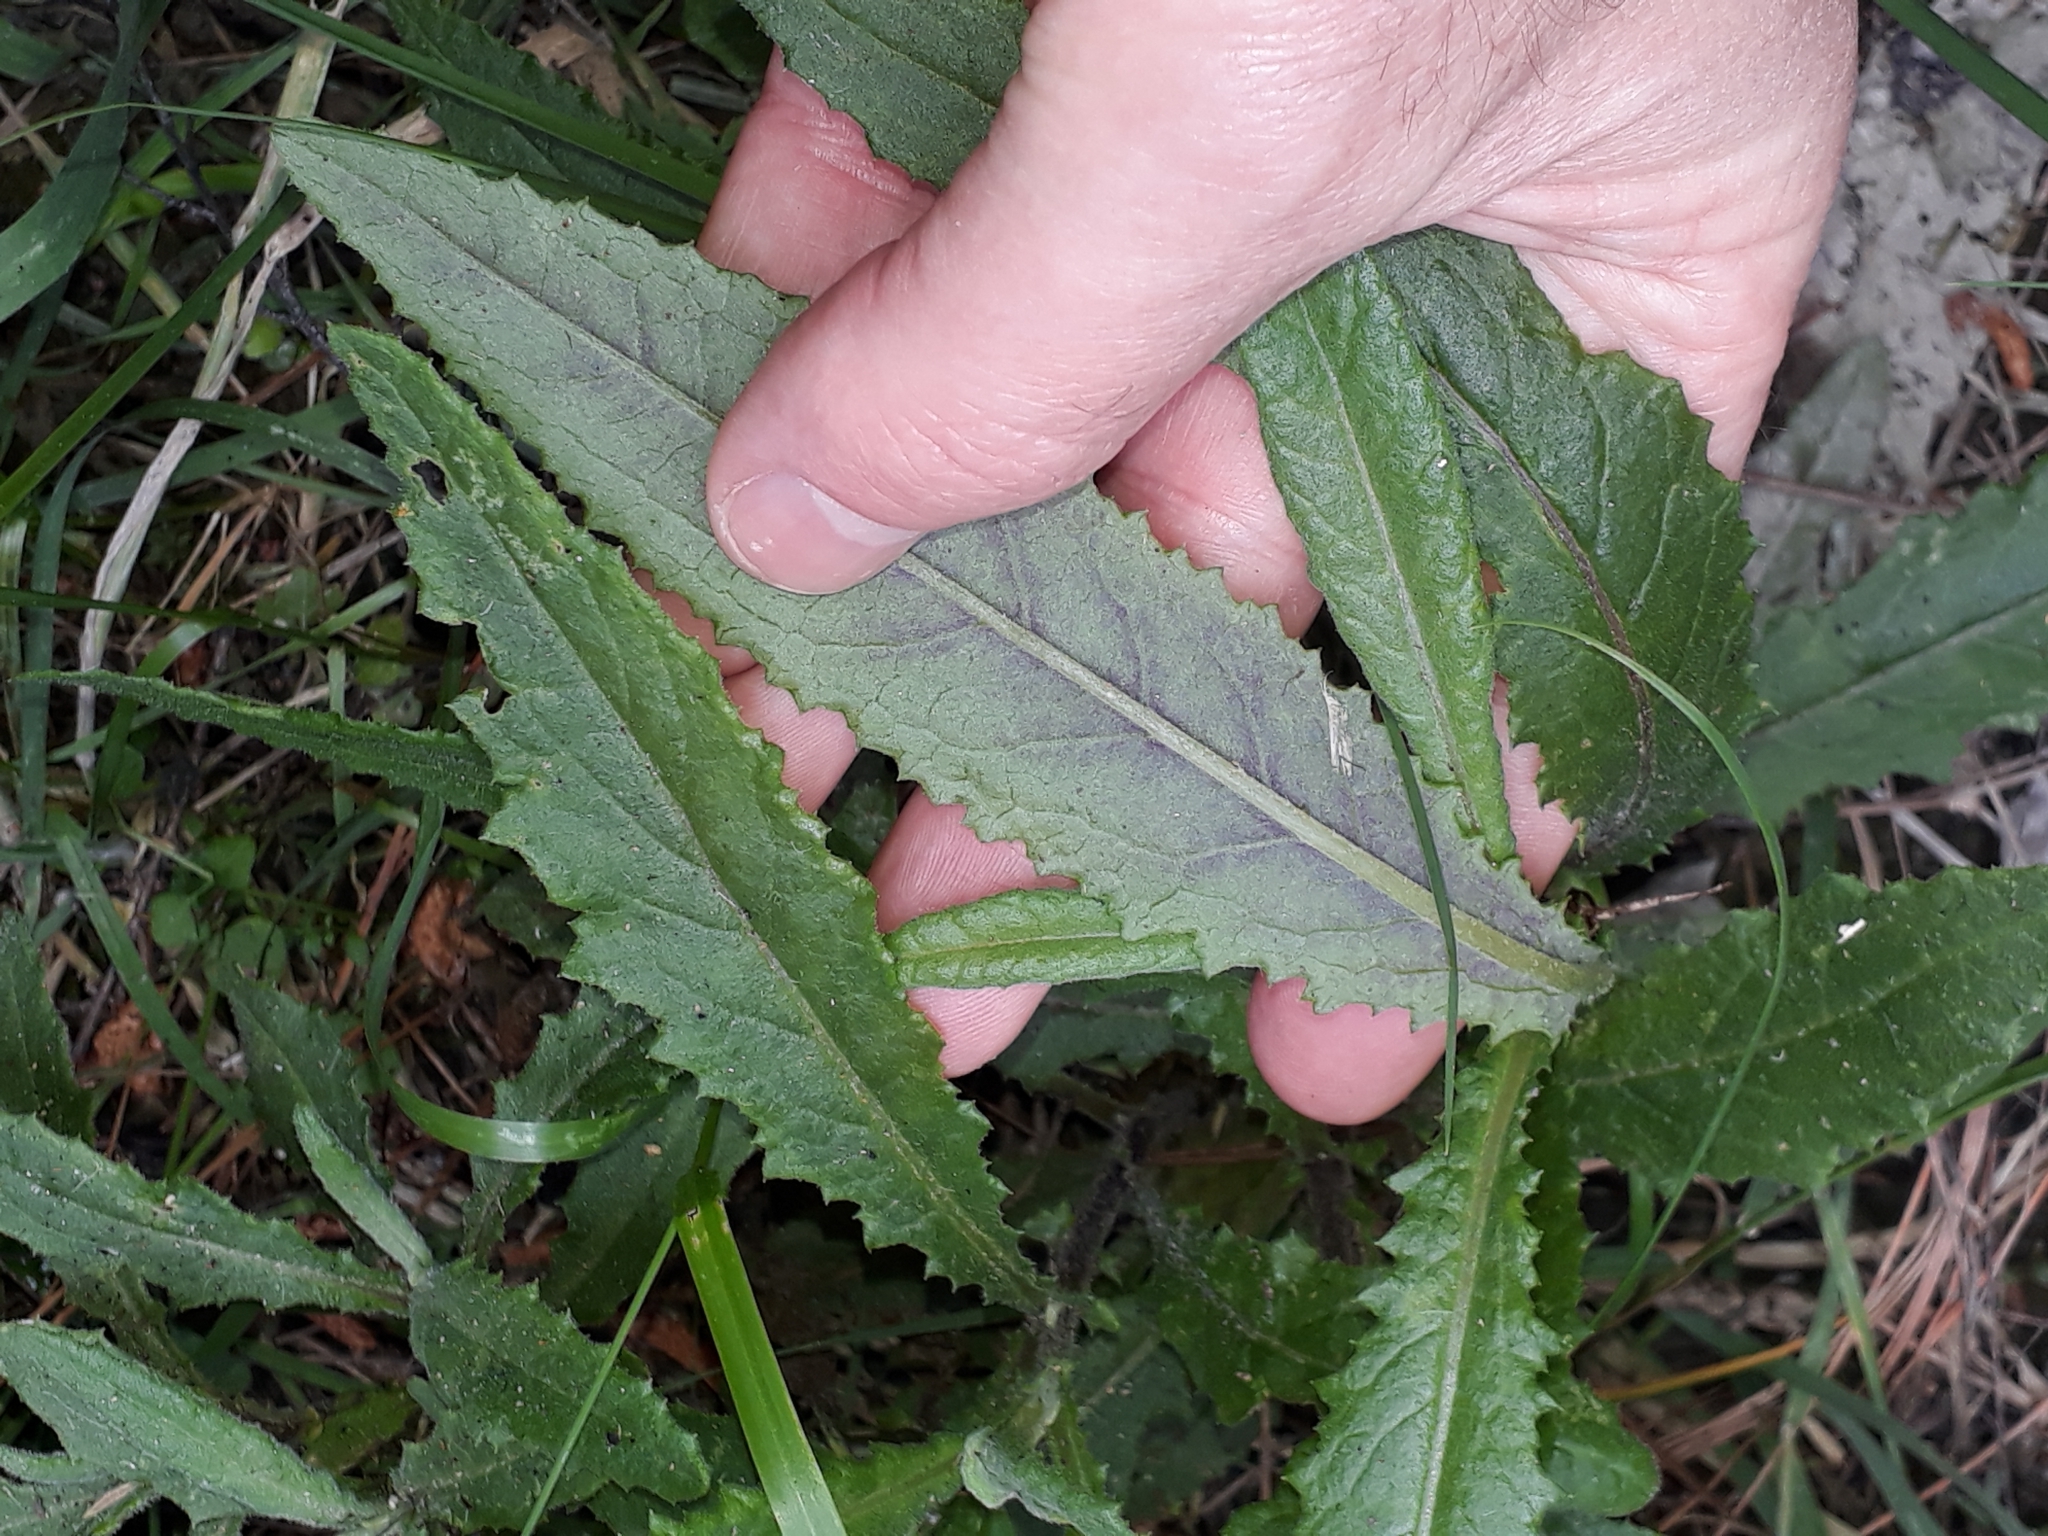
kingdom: Plantae
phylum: Tracheophyta
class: Magnoliopsida
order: Asterales
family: Asteraceae
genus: Senecio
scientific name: Senecio minimus
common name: Toothed fireweed
